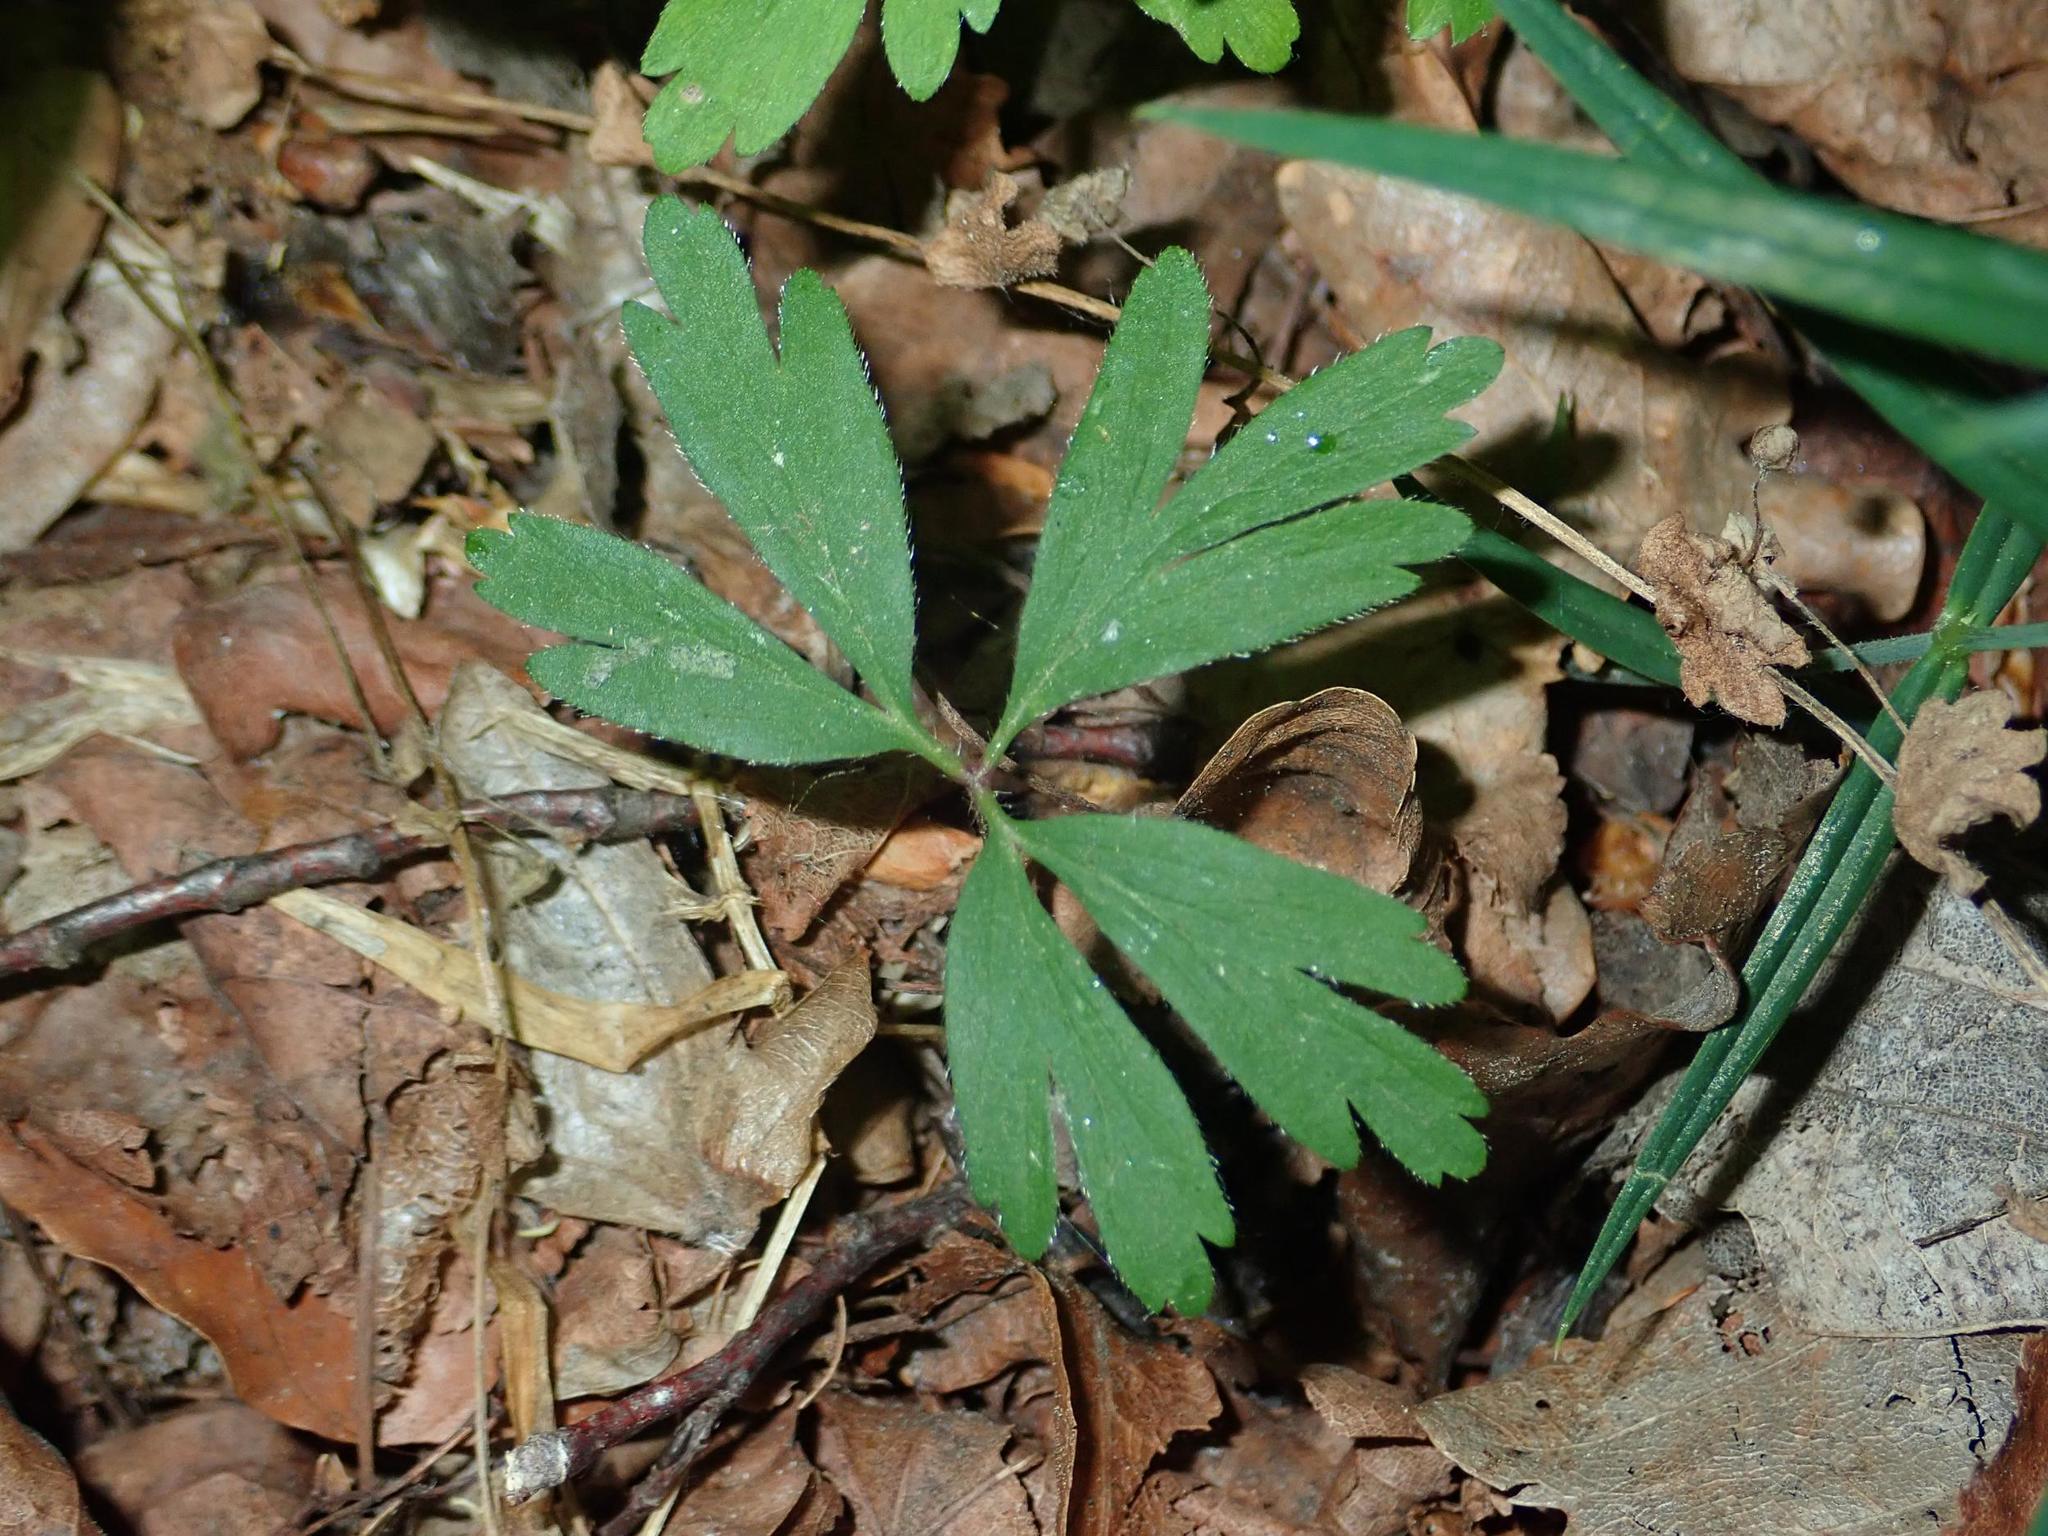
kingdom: Plantae
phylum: Tracheophyta
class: Magnoliopsida
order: Ranunculales
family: Ranunculaceae
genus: Anemone
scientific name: Anemone nemorosa
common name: Wood anemone
